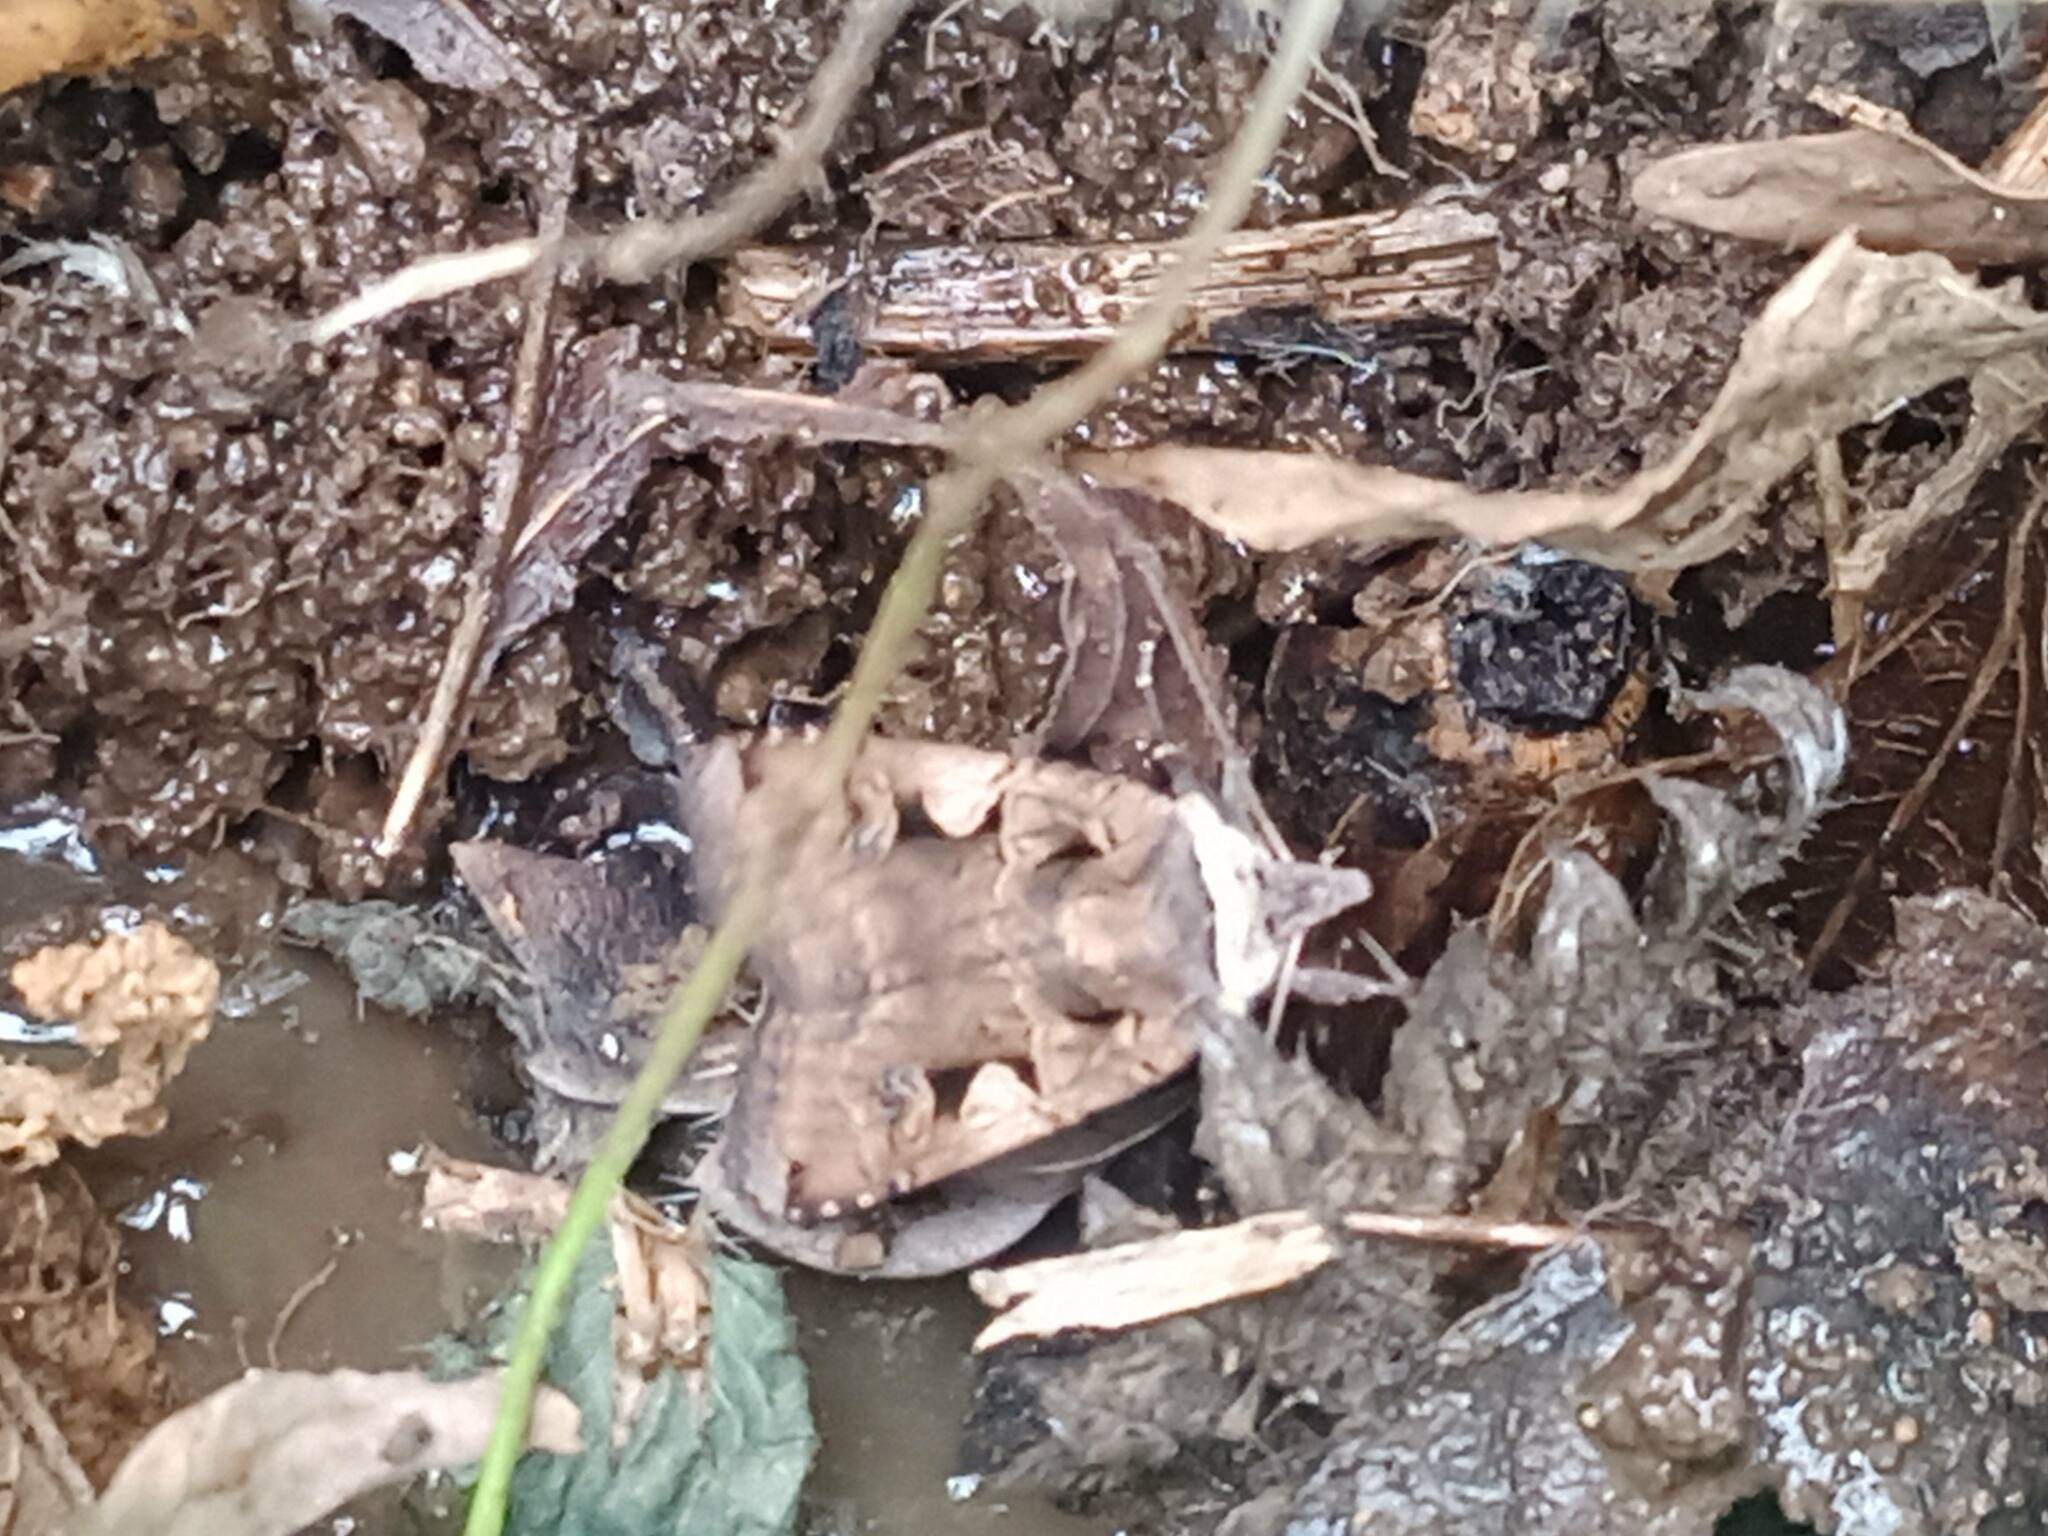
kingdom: Animalia
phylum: Arthropoda
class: Insecta
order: Lepidoptera
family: Noctuidae
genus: Xestia
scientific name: Xestia c-nigrum
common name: Setaceous hebrew character
